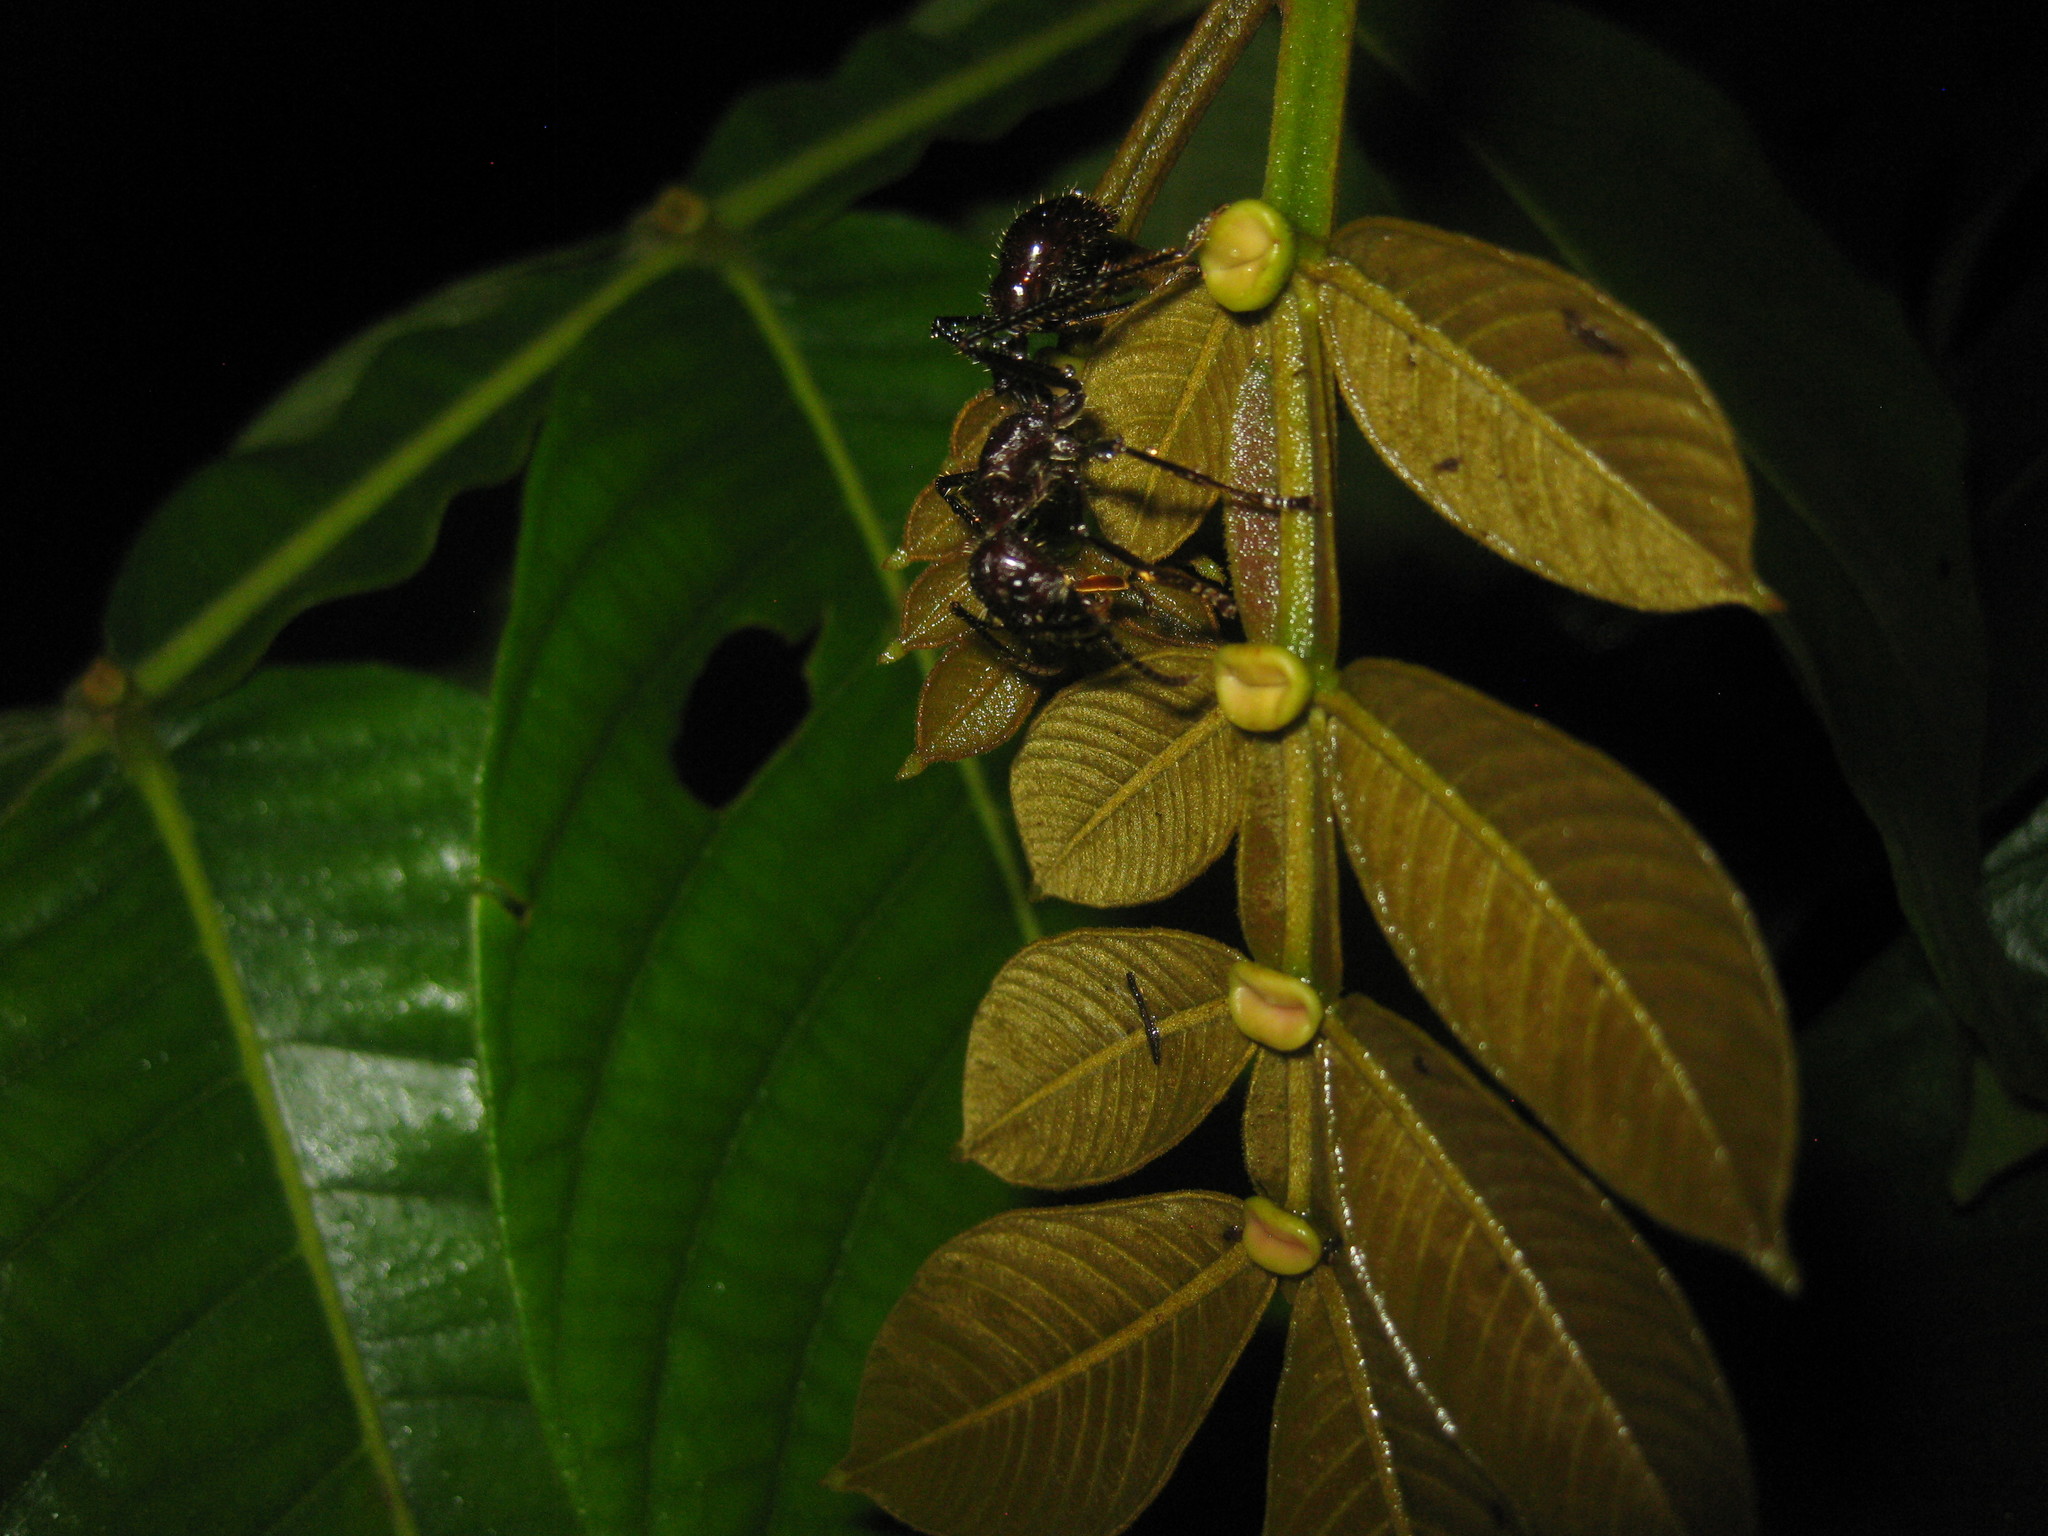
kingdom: Animalia
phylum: Arthropoda
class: Insecta
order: Hymenoptera
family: Formicidae
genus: Paraponera
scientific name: Paraponera clavata
